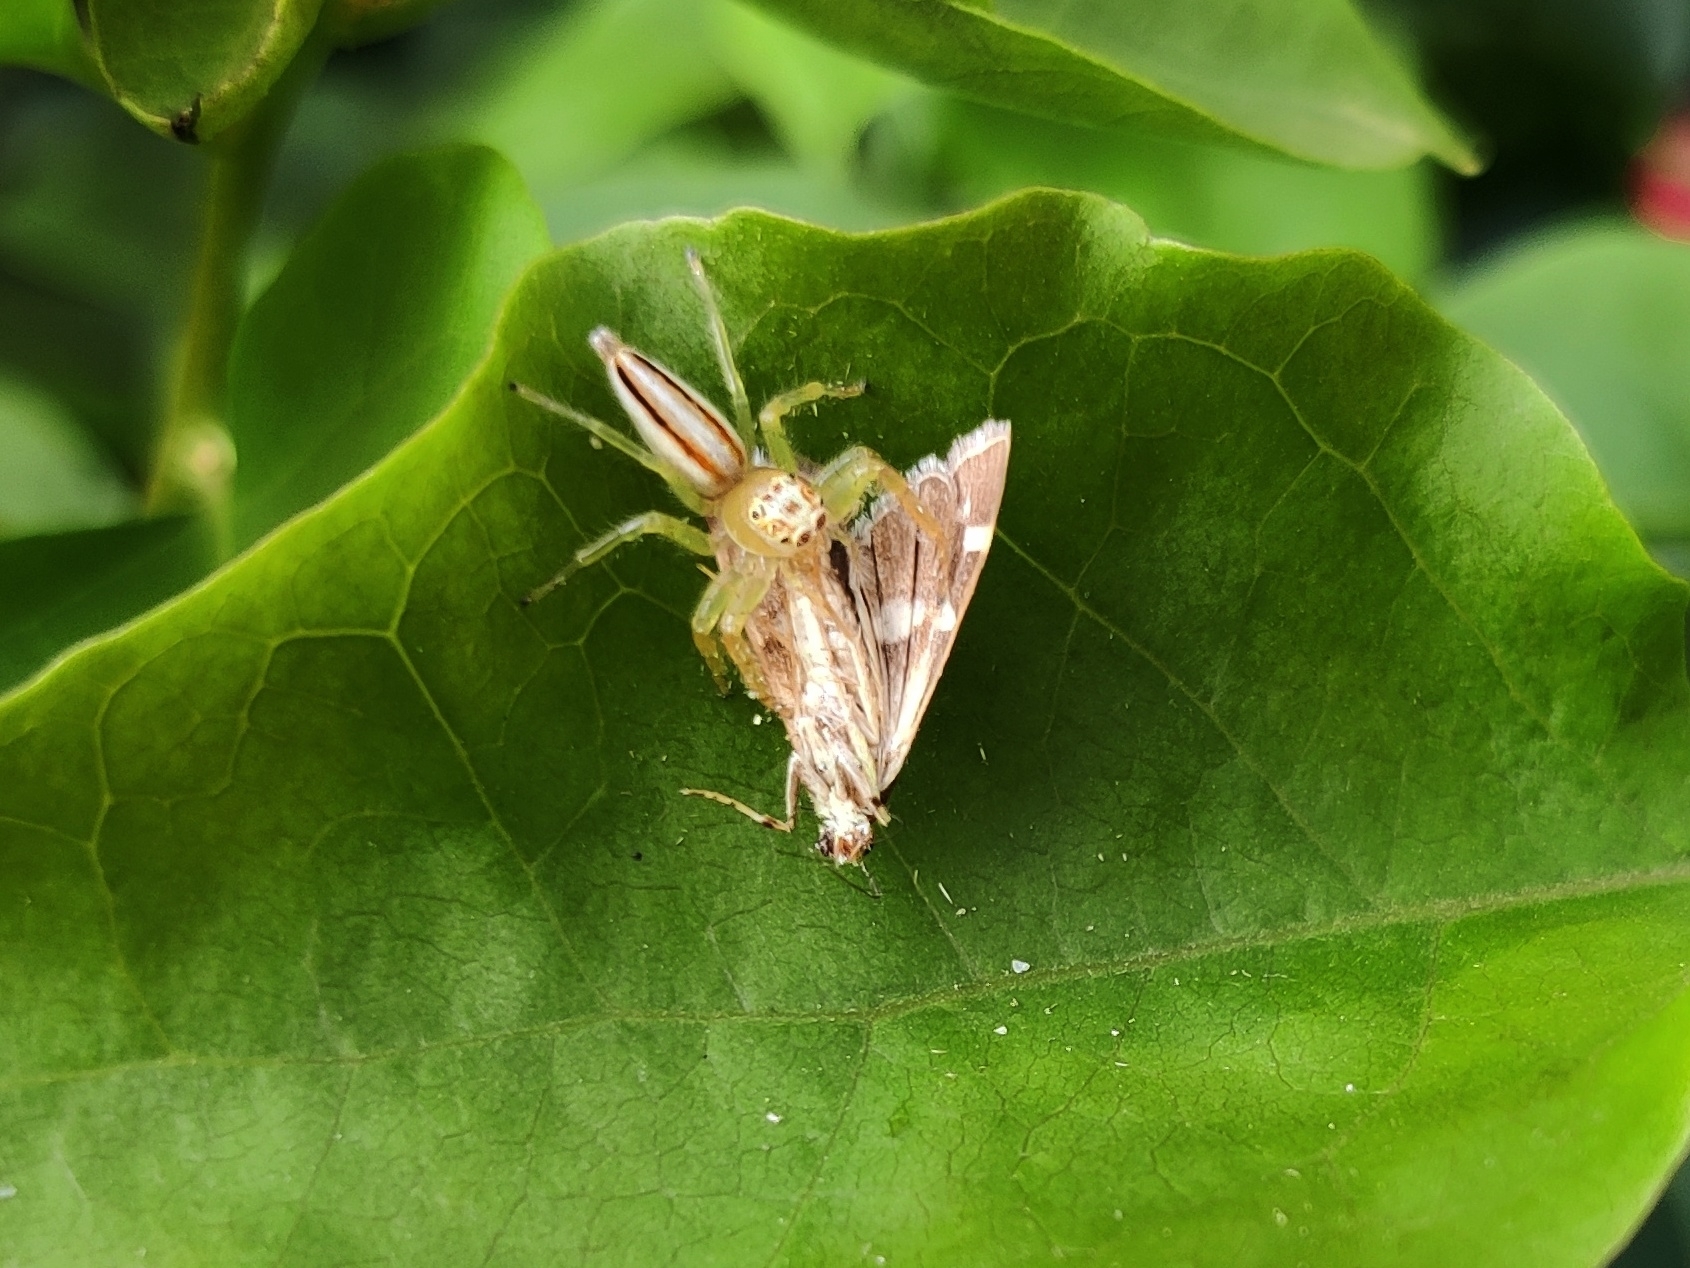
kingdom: Animalia
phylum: Arthropoda
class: Arachnida
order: Araneae
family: Salticidae
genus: Telamonia
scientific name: Telamonia dimidiata
